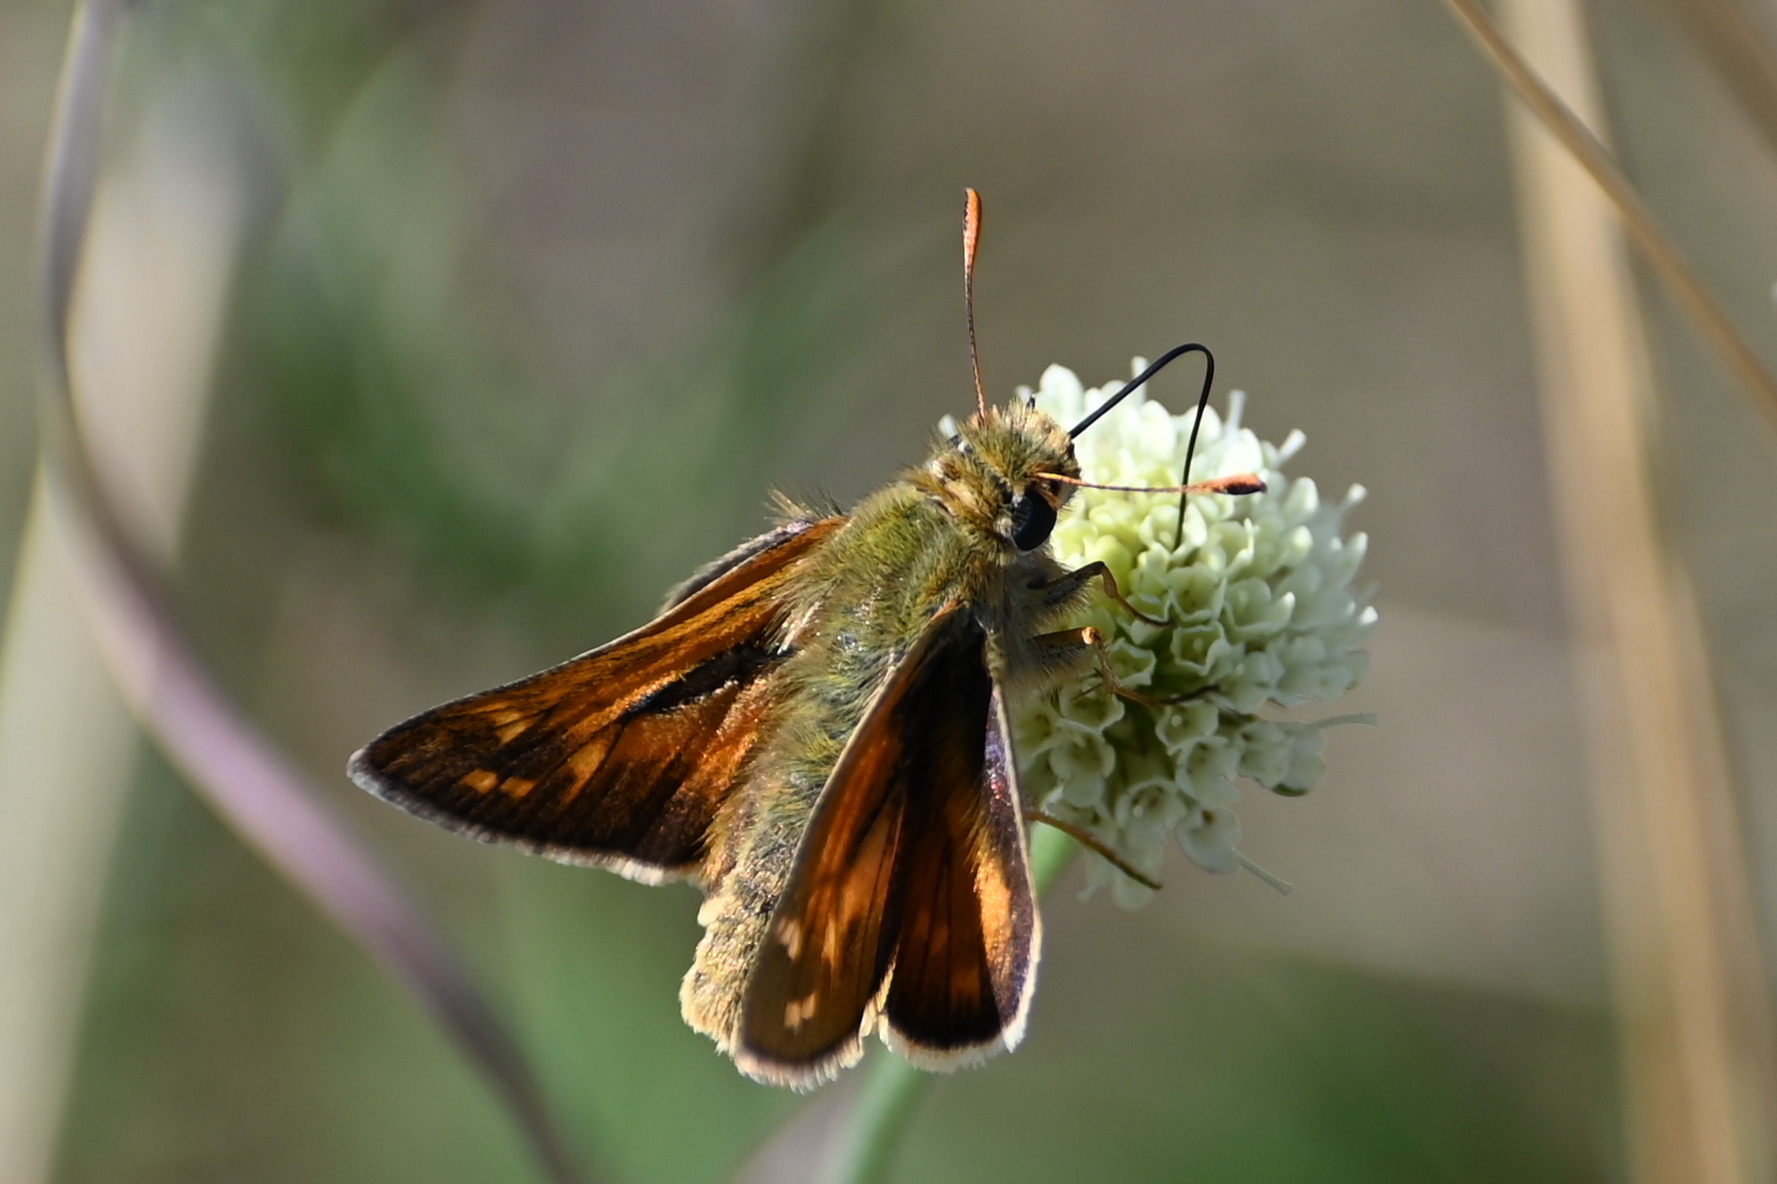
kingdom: Animalia
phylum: Arthropoda
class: Insecta
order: Lepidoptera
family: Hesperiidae
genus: Hesperia
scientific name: Hesperia comma
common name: Common branded skipper
